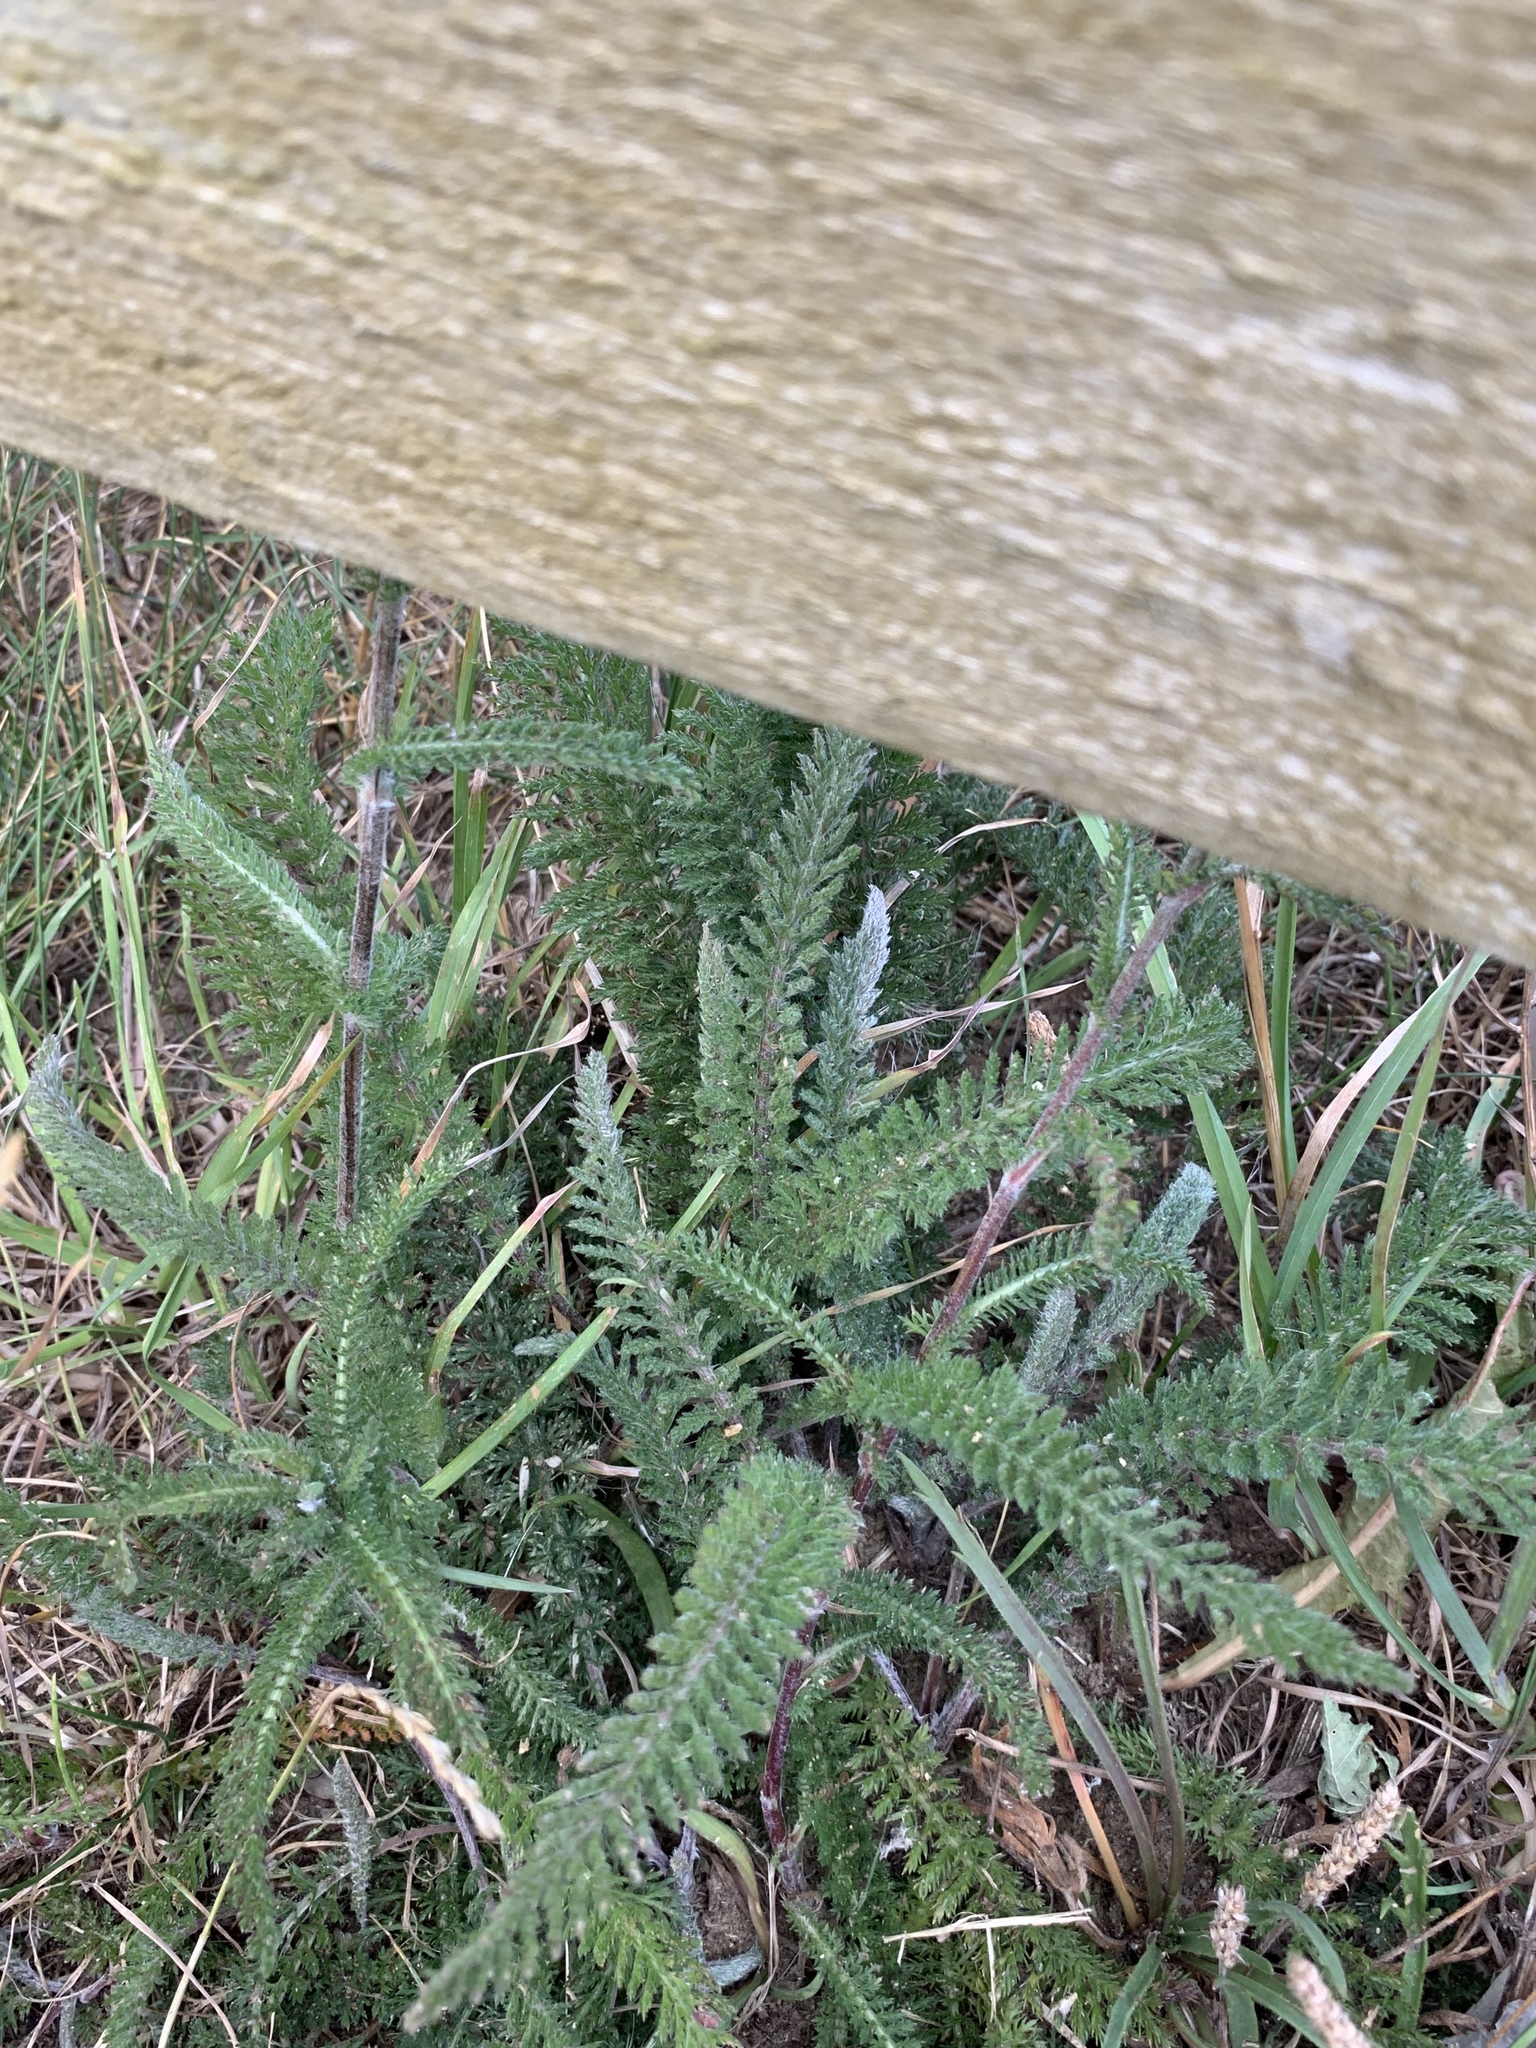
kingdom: Plantae
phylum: Tracheophyta
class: Magnoliopsida
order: Asterales
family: Asteraceae
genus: Achillea
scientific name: Achillea millefolium
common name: Yarrow
